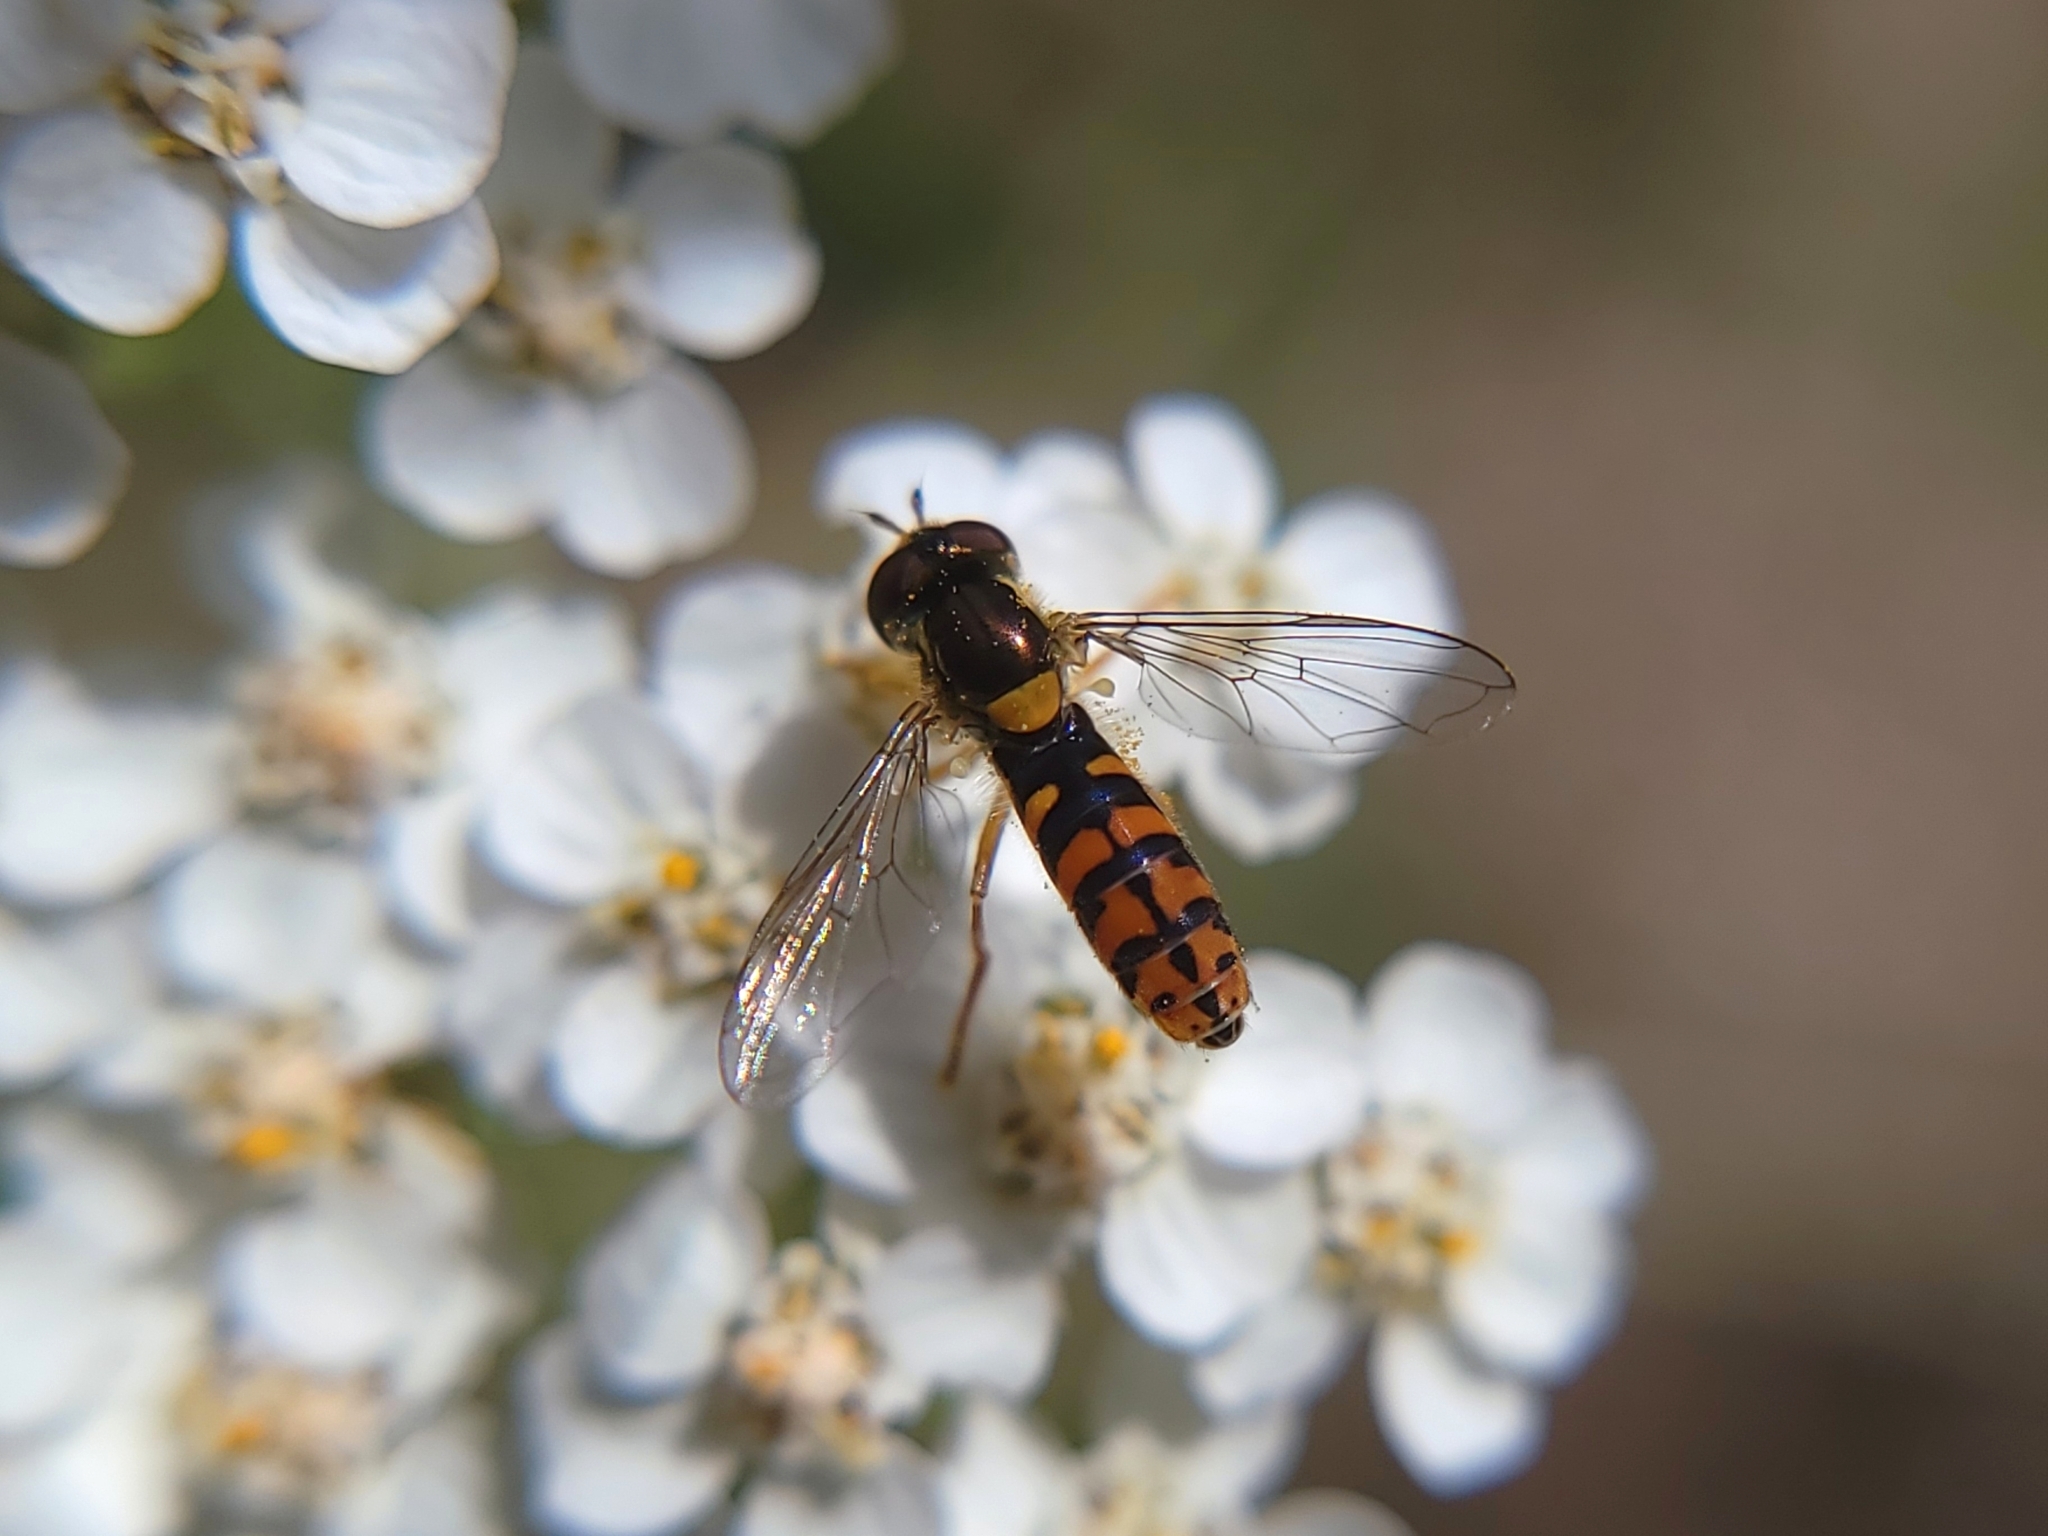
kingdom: Animalia
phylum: Arthropoda
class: Insecta
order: Diptera
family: Syrphidae
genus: Sphaerophoria
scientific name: Sphaerophoria pyrrhina
